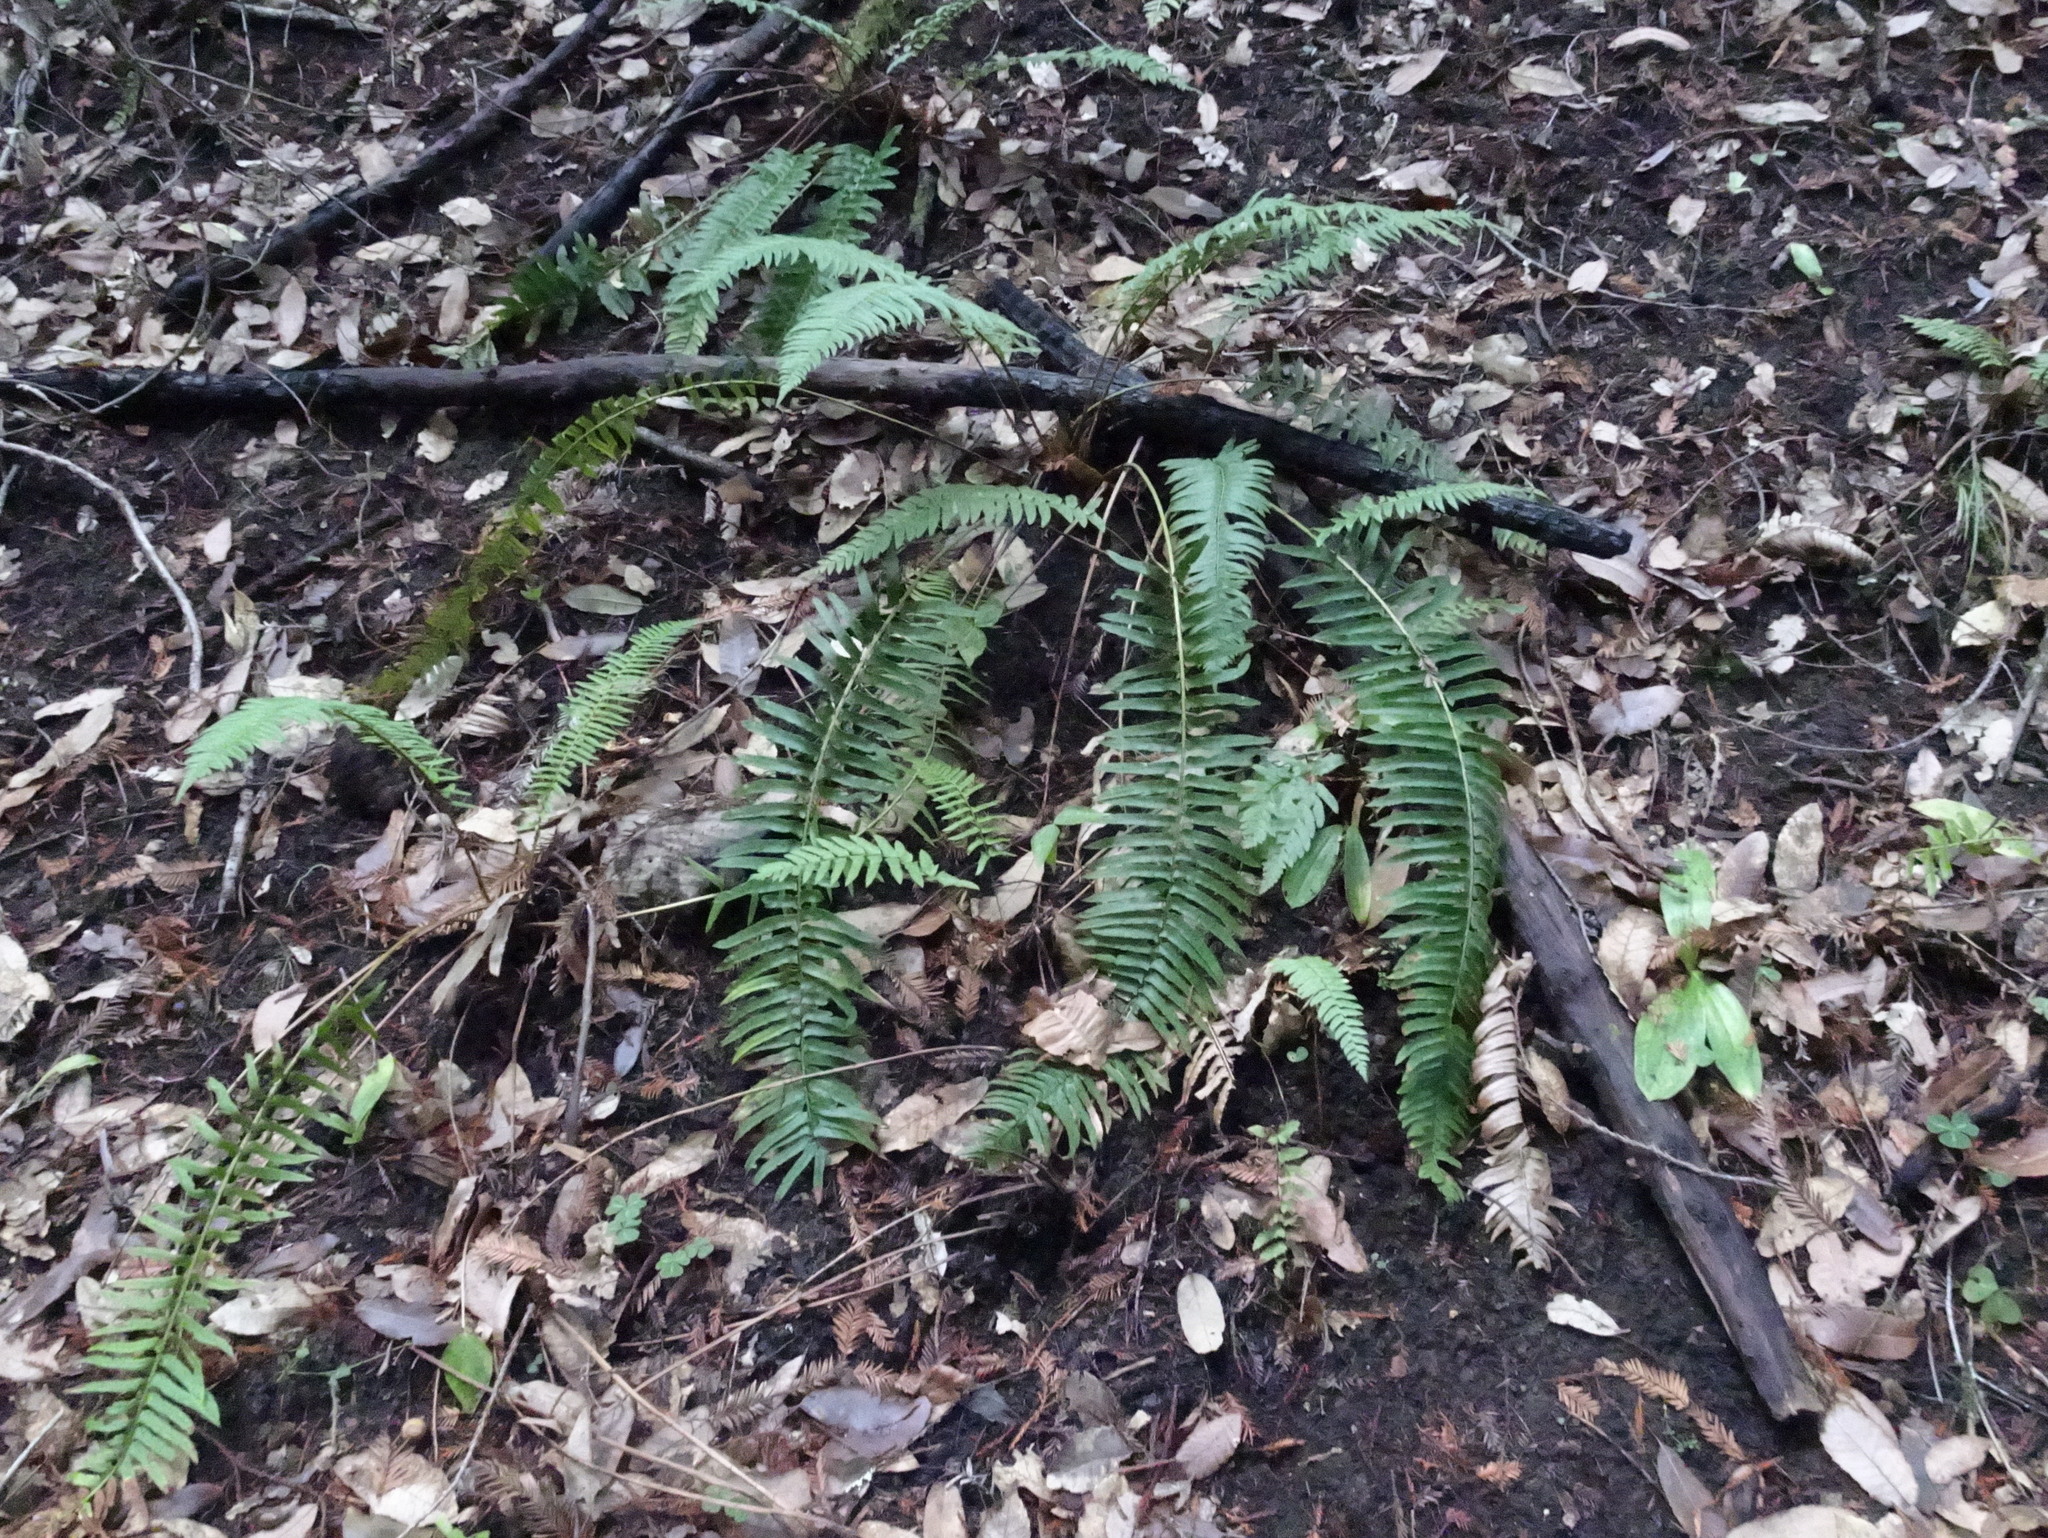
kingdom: Plantae
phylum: Tracheophyta
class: Polypodiopsida
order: Polypodiales
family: Dryopteridaceae
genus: Polystichum
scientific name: Polystichum munitum
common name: Western sword-fern
